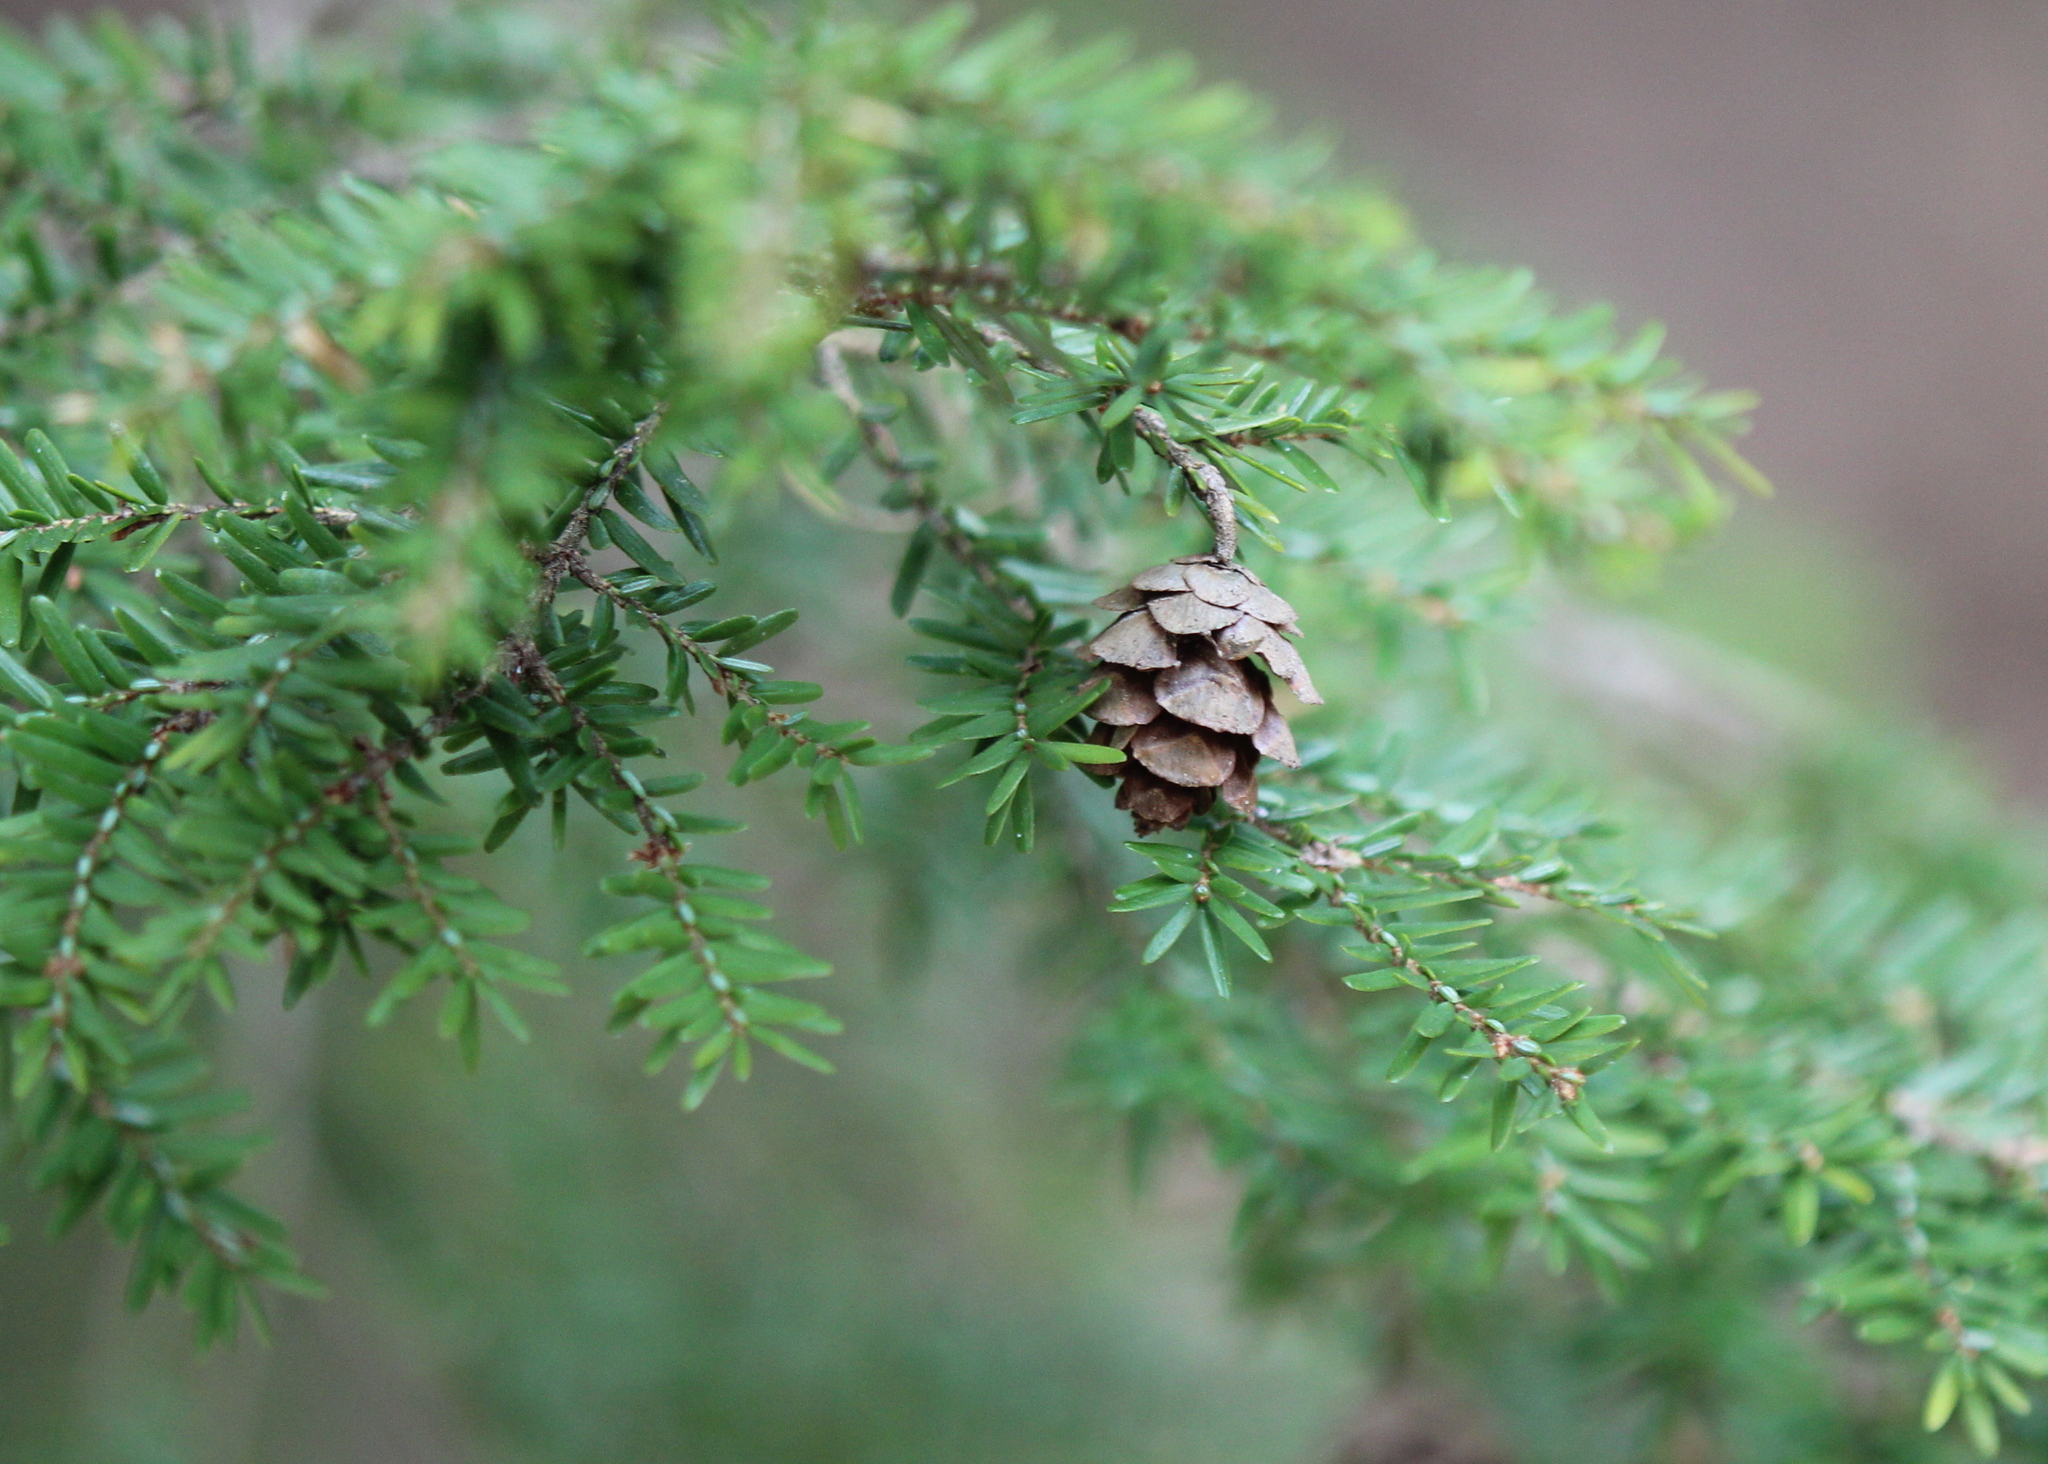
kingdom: Plantae
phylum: Tracheophyta
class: Pinopsida
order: Pinales
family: Pinaceae
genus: Tsuga
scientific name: Tsuga canadensis
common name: Eastern hemlock
